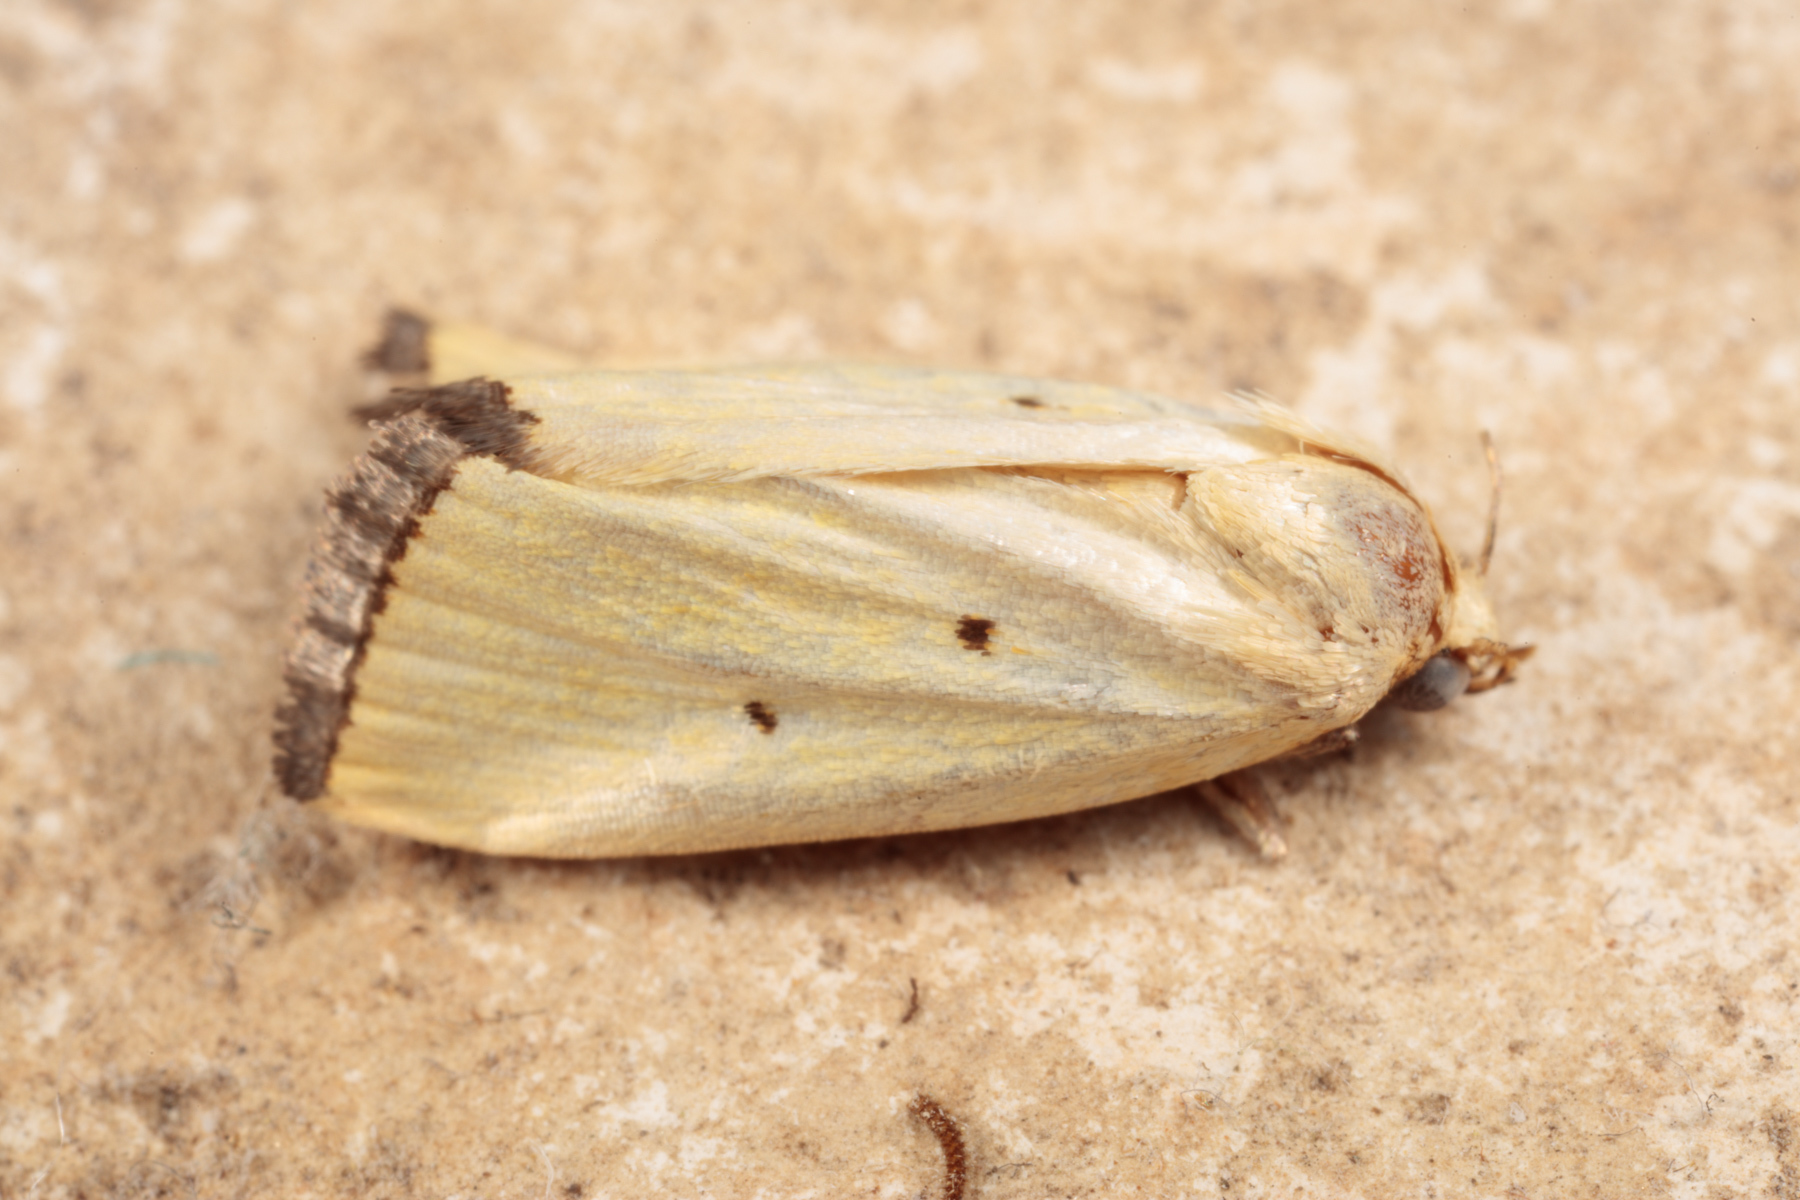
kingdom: Animalia
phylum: Arthropoda
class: Insecta
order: Lepidoptera
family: Noctuidae
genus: Marimatha
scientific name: Marimatha nigrofimbria
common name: Black-bordered lemon moth
